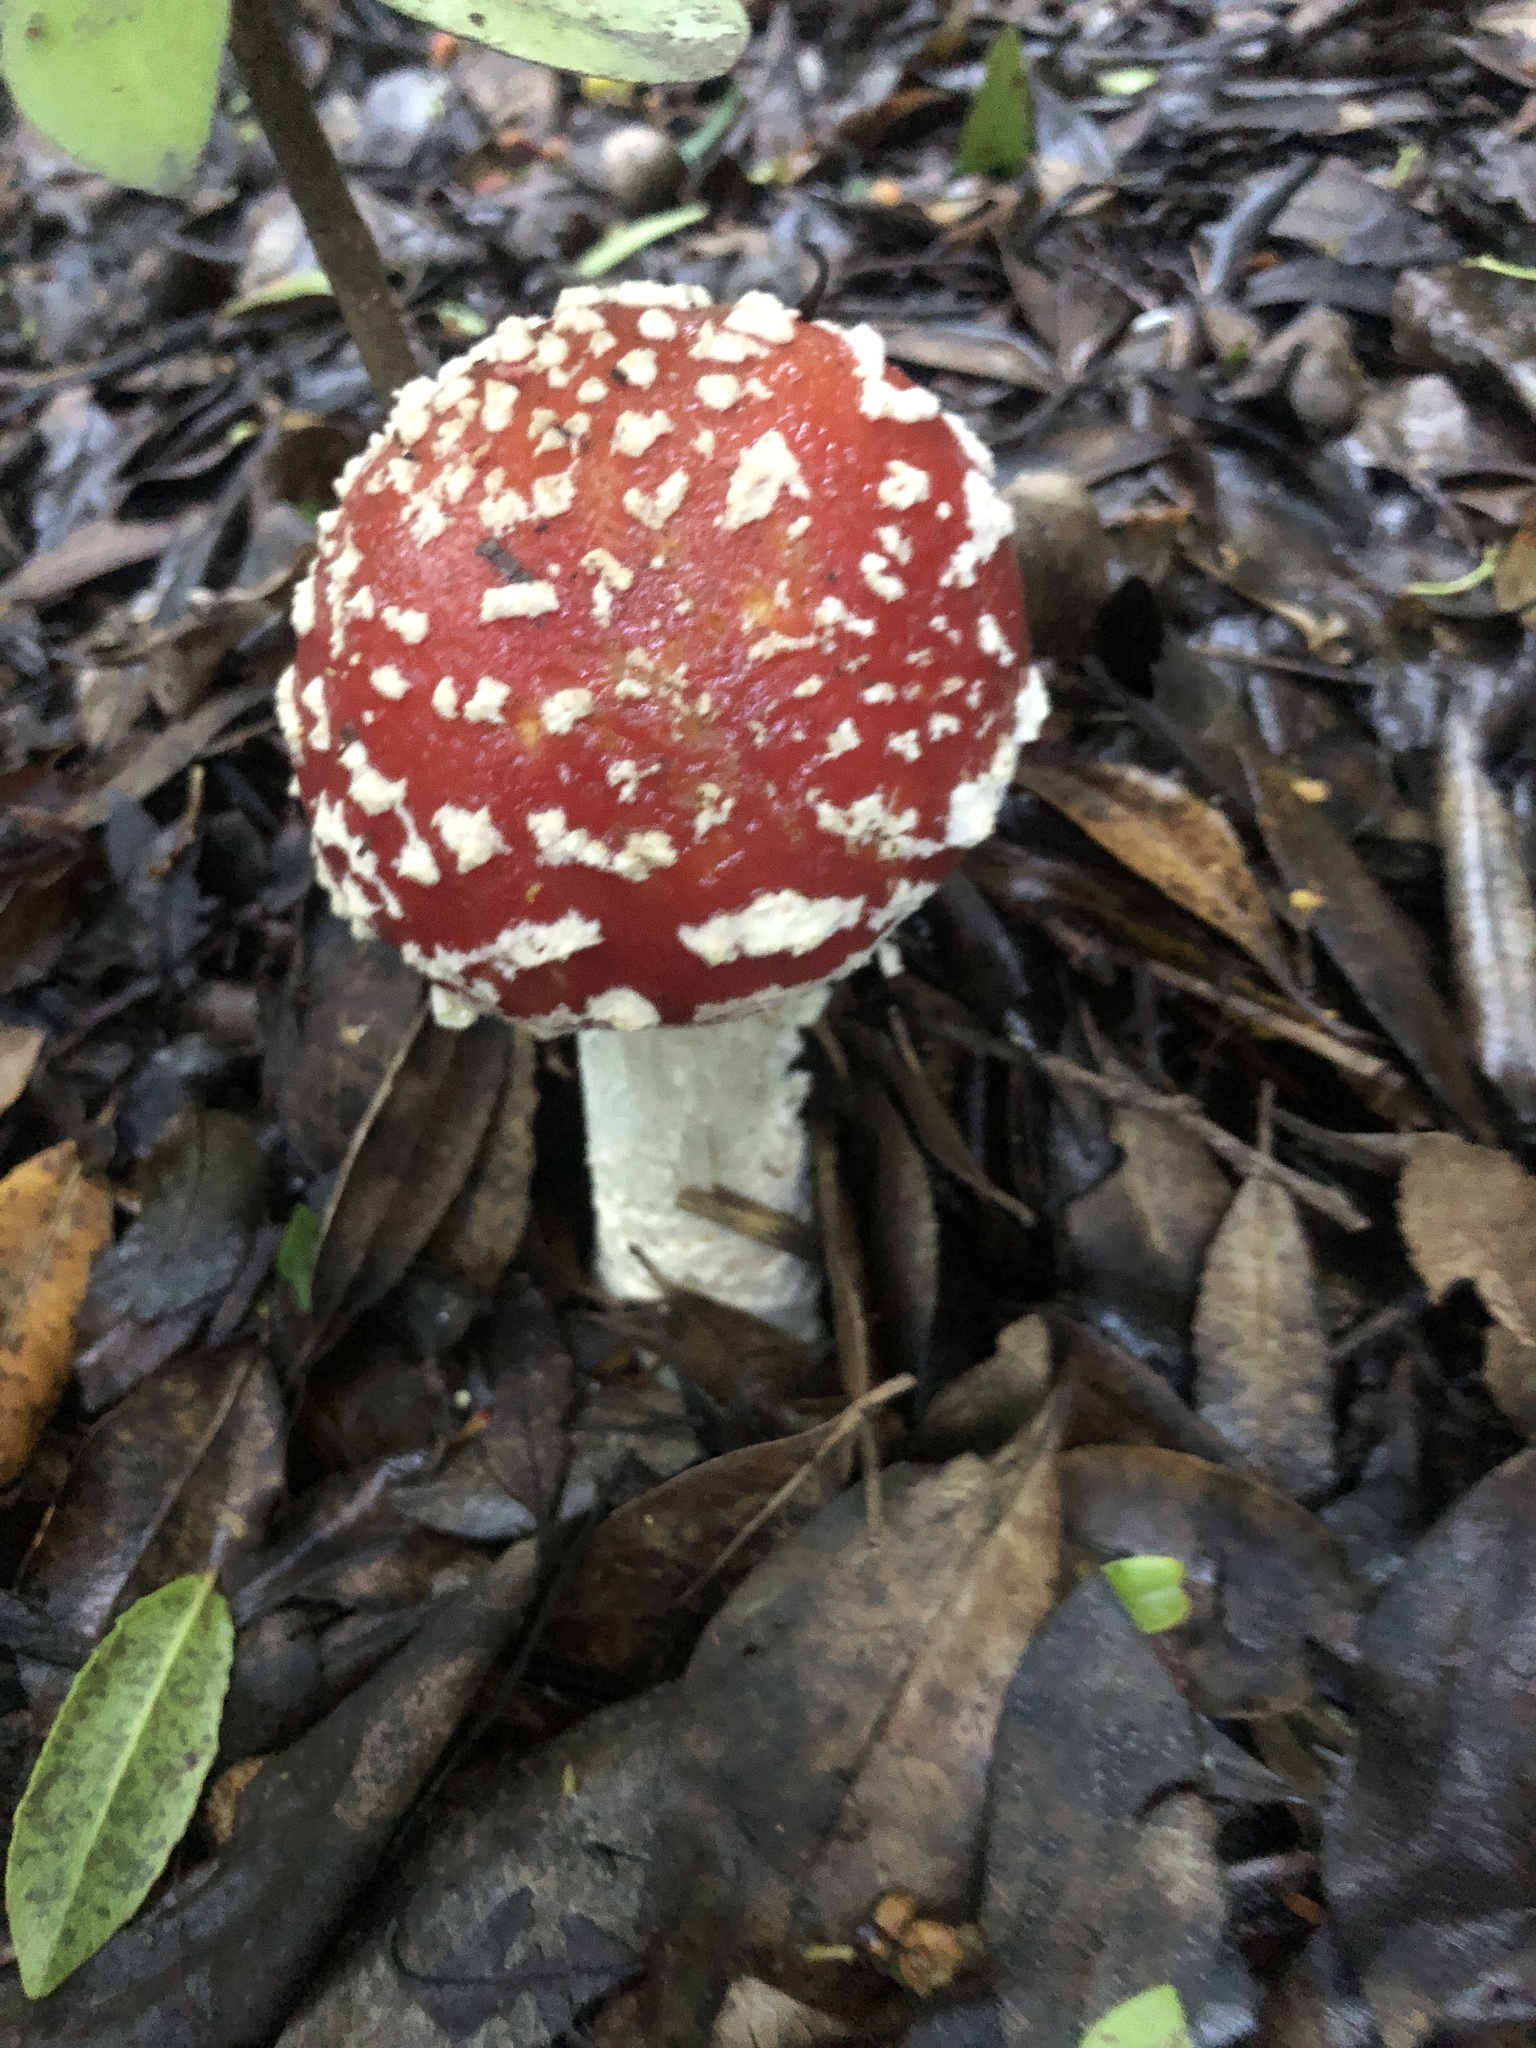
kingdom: Fungi
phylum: Basidiomycota
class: Agaricomycetes
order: Agaricales
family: Amanitaceae
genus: Amanita
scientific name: Amanita muscaria
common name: Fly agaric
